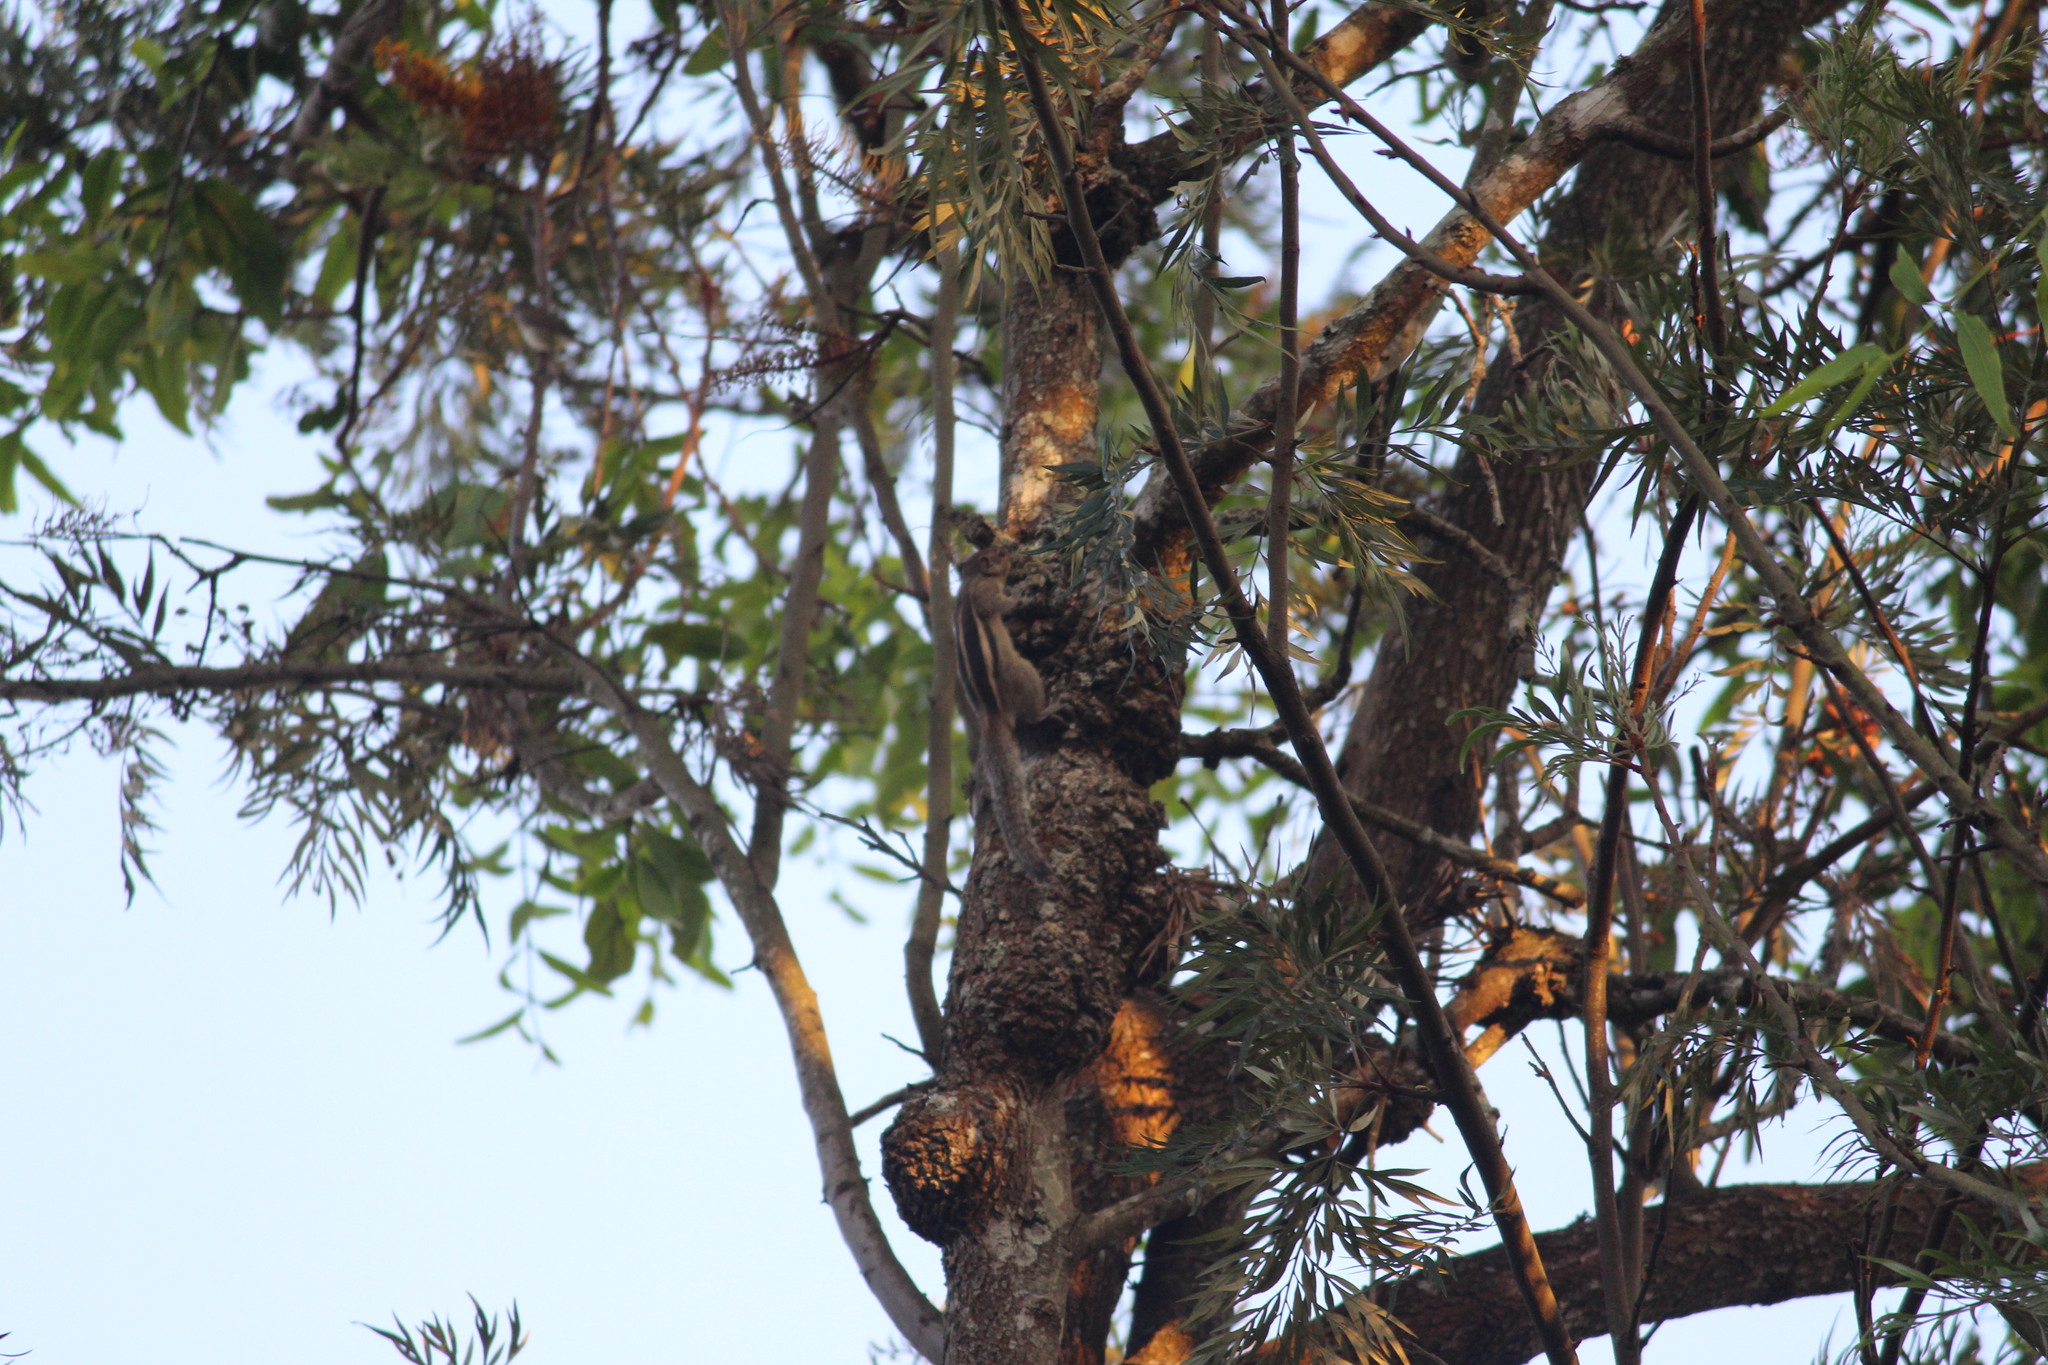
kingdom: Animalia
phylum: Chordata
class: Mammalia
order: Rodentia
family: Sciuridae
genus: Funambulus
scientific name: Funambulus palmarum
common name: Indian palm squirrel
